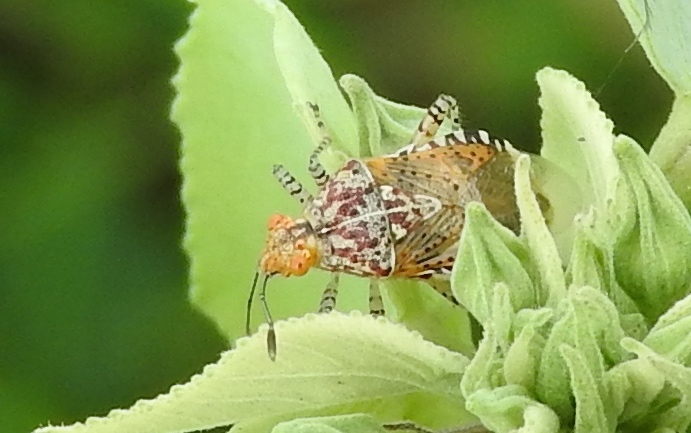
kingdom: Animalia
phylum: Arthropoda
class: Insecta
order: Hemiptera
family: Rhopalidae
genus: Niesthrea
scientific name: Niesthrea
